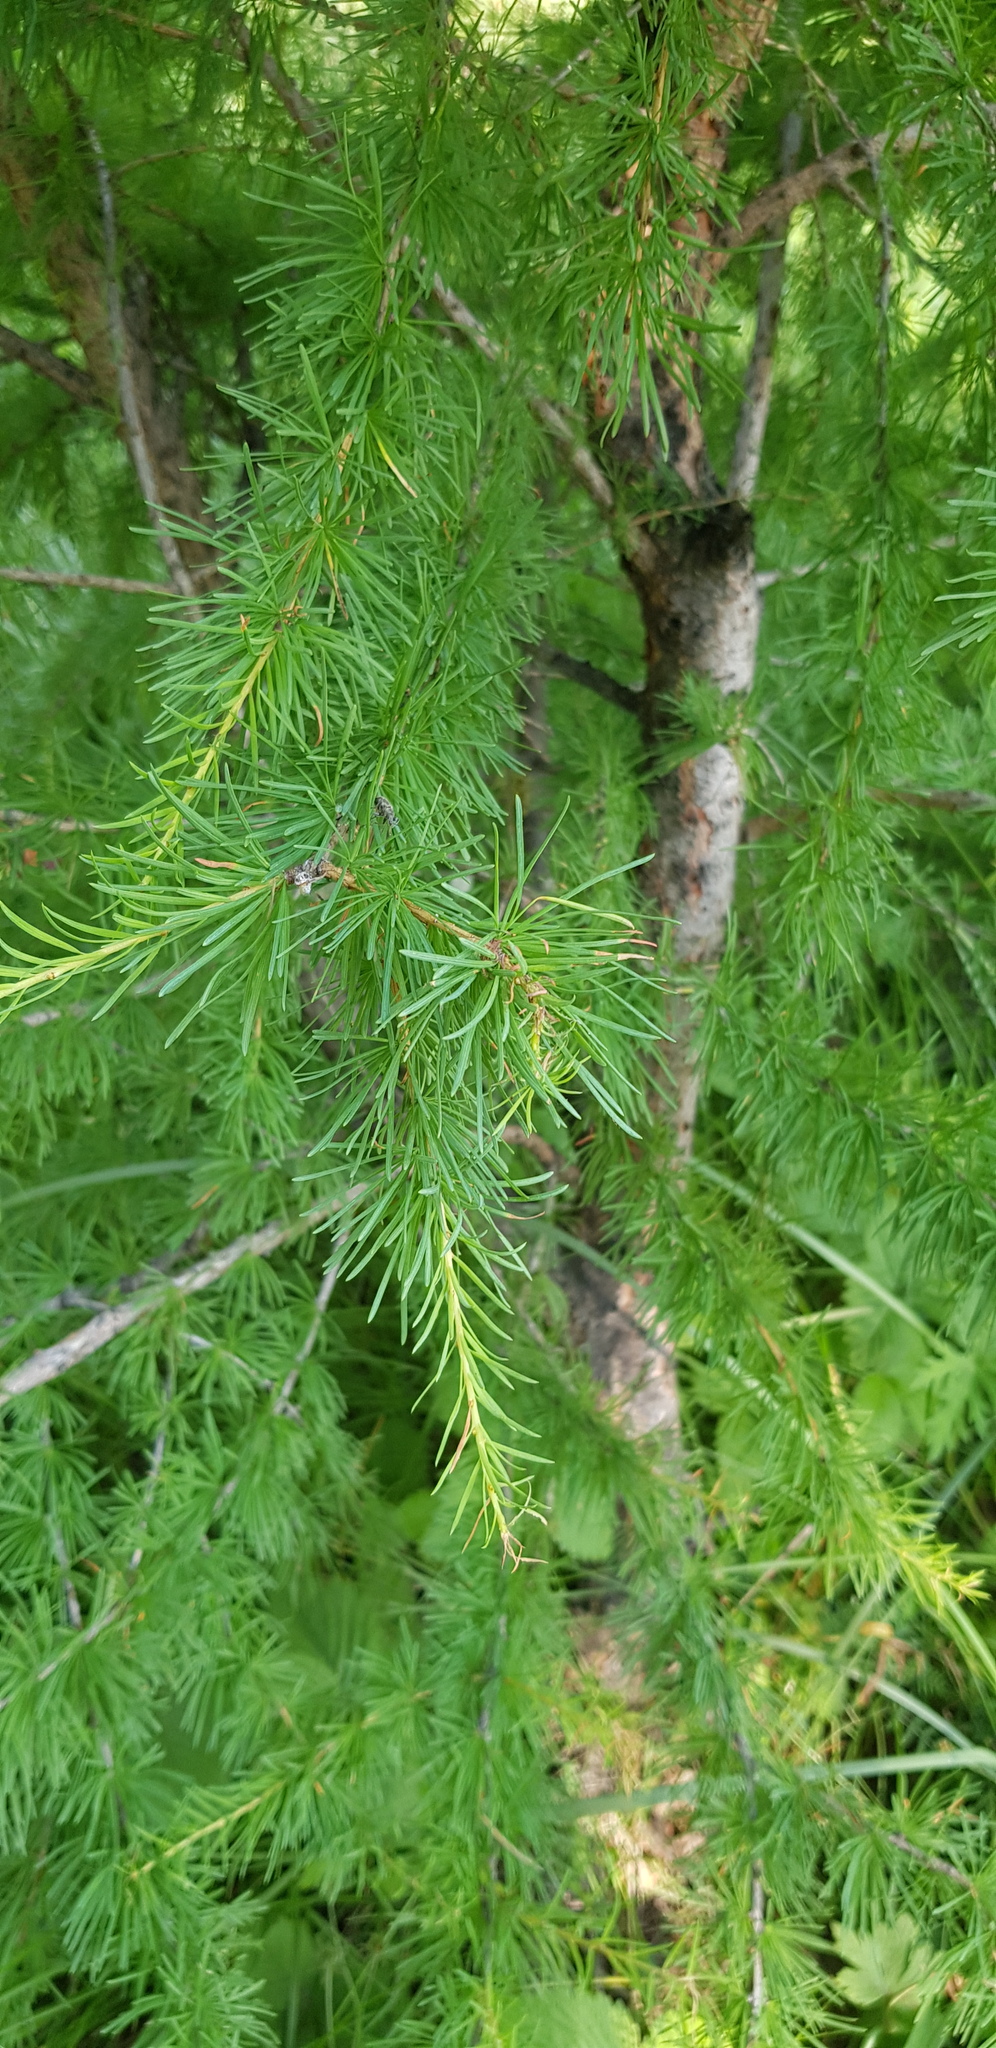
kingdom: Plantae
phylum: Tracheophyta
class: Pinopsida
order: Pinales
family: Pinaceae
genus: Larix
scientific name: Larix sibirica
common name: Siberian larch
